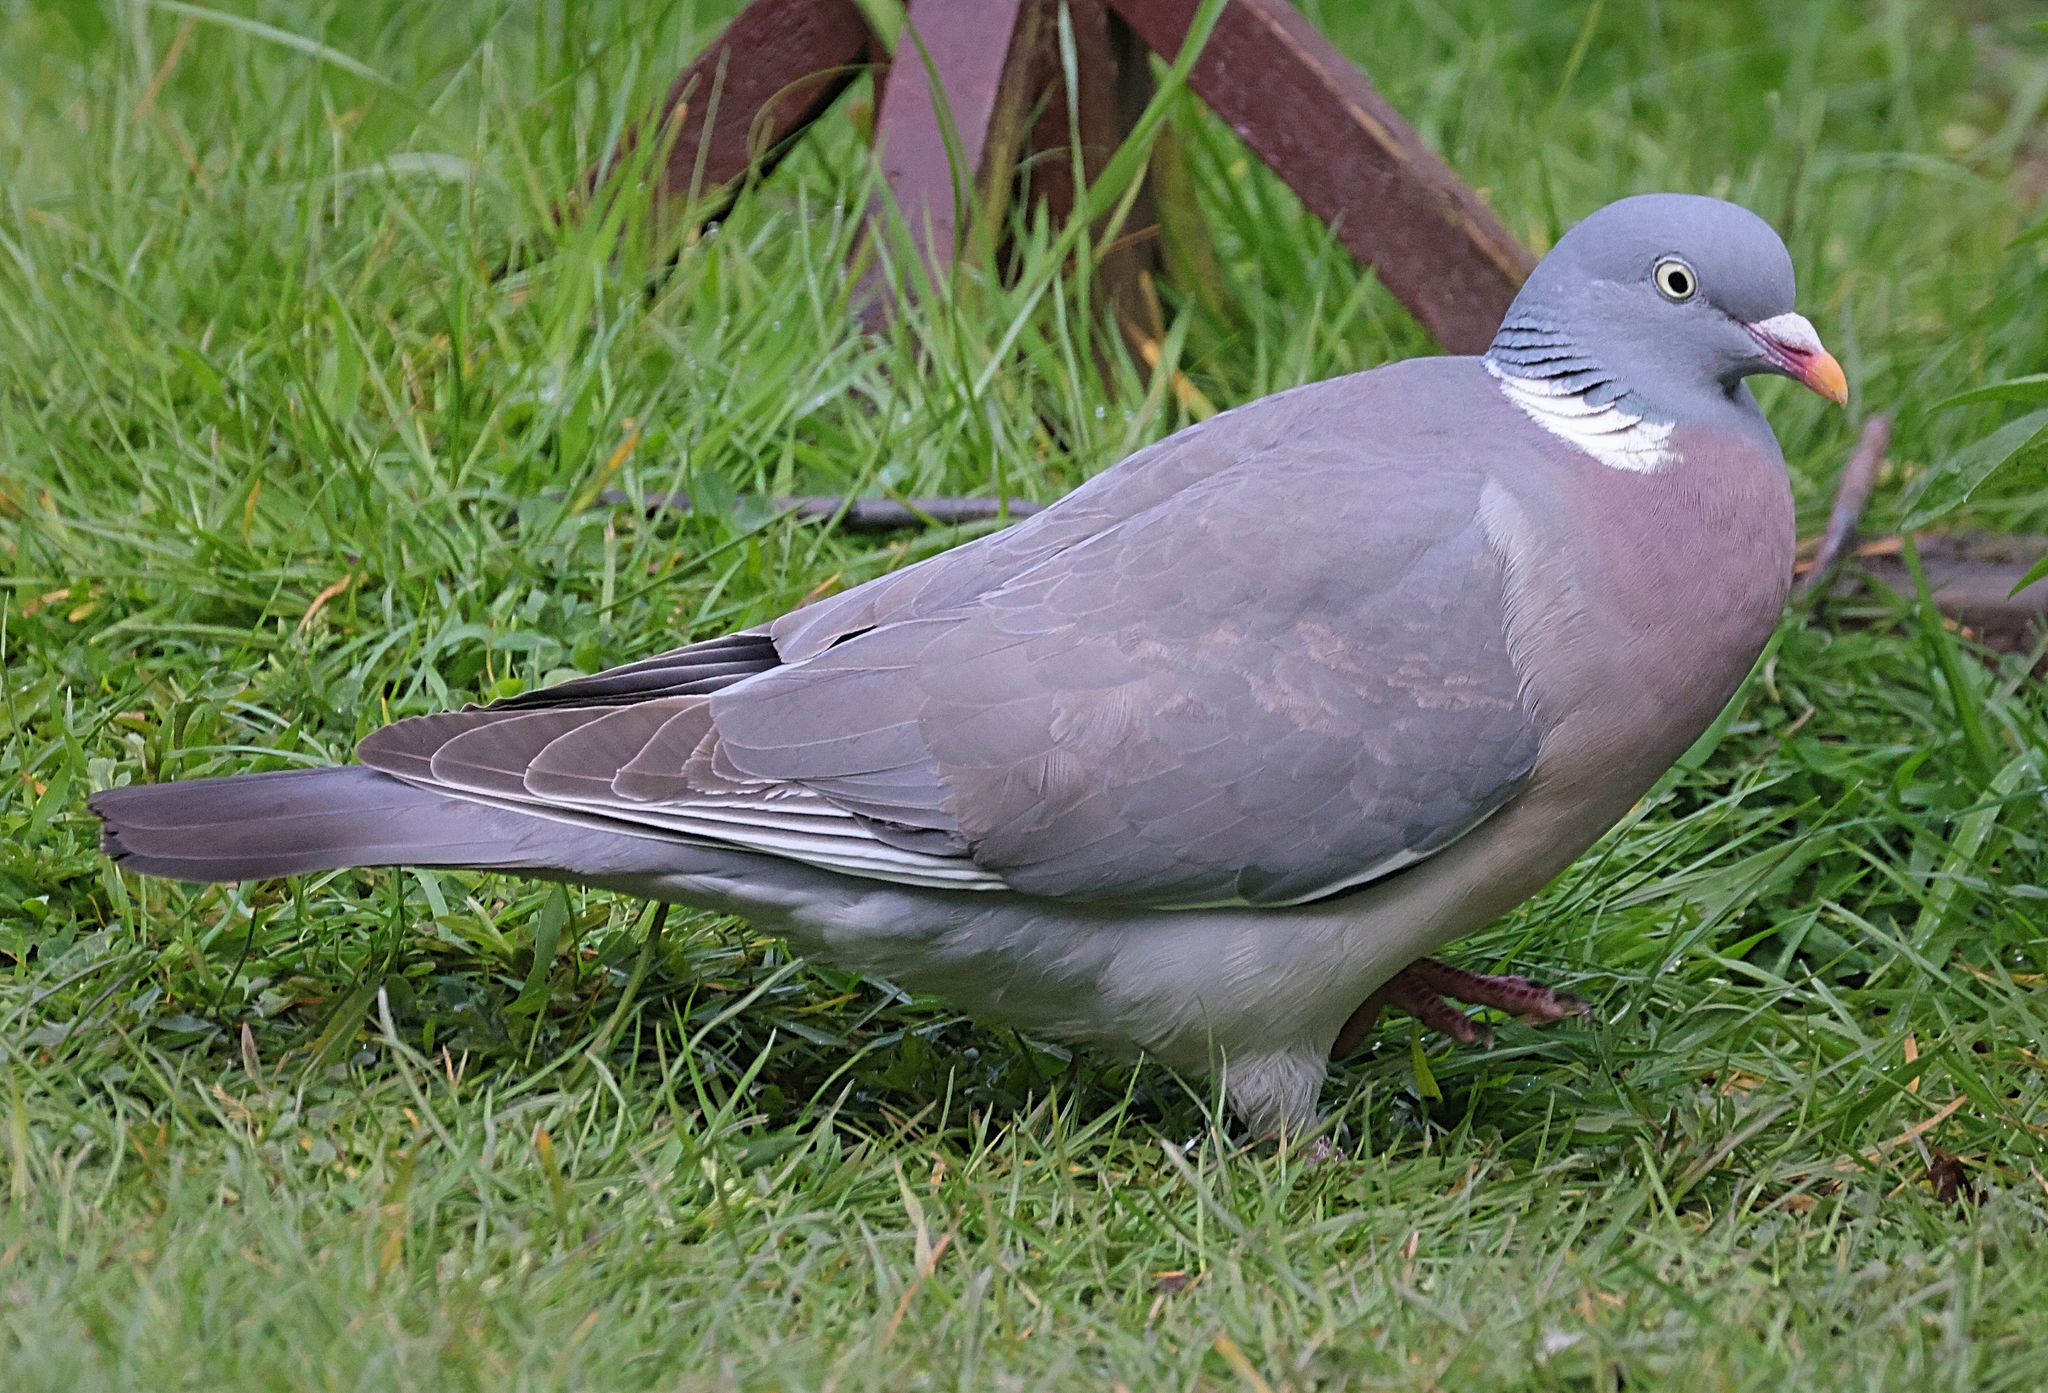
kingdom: Animalia
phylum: Chordata
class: Aves
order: Columbiformes
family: Columbidae
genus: Columba
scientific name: Columba palumbus
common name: Common wood pigeon
